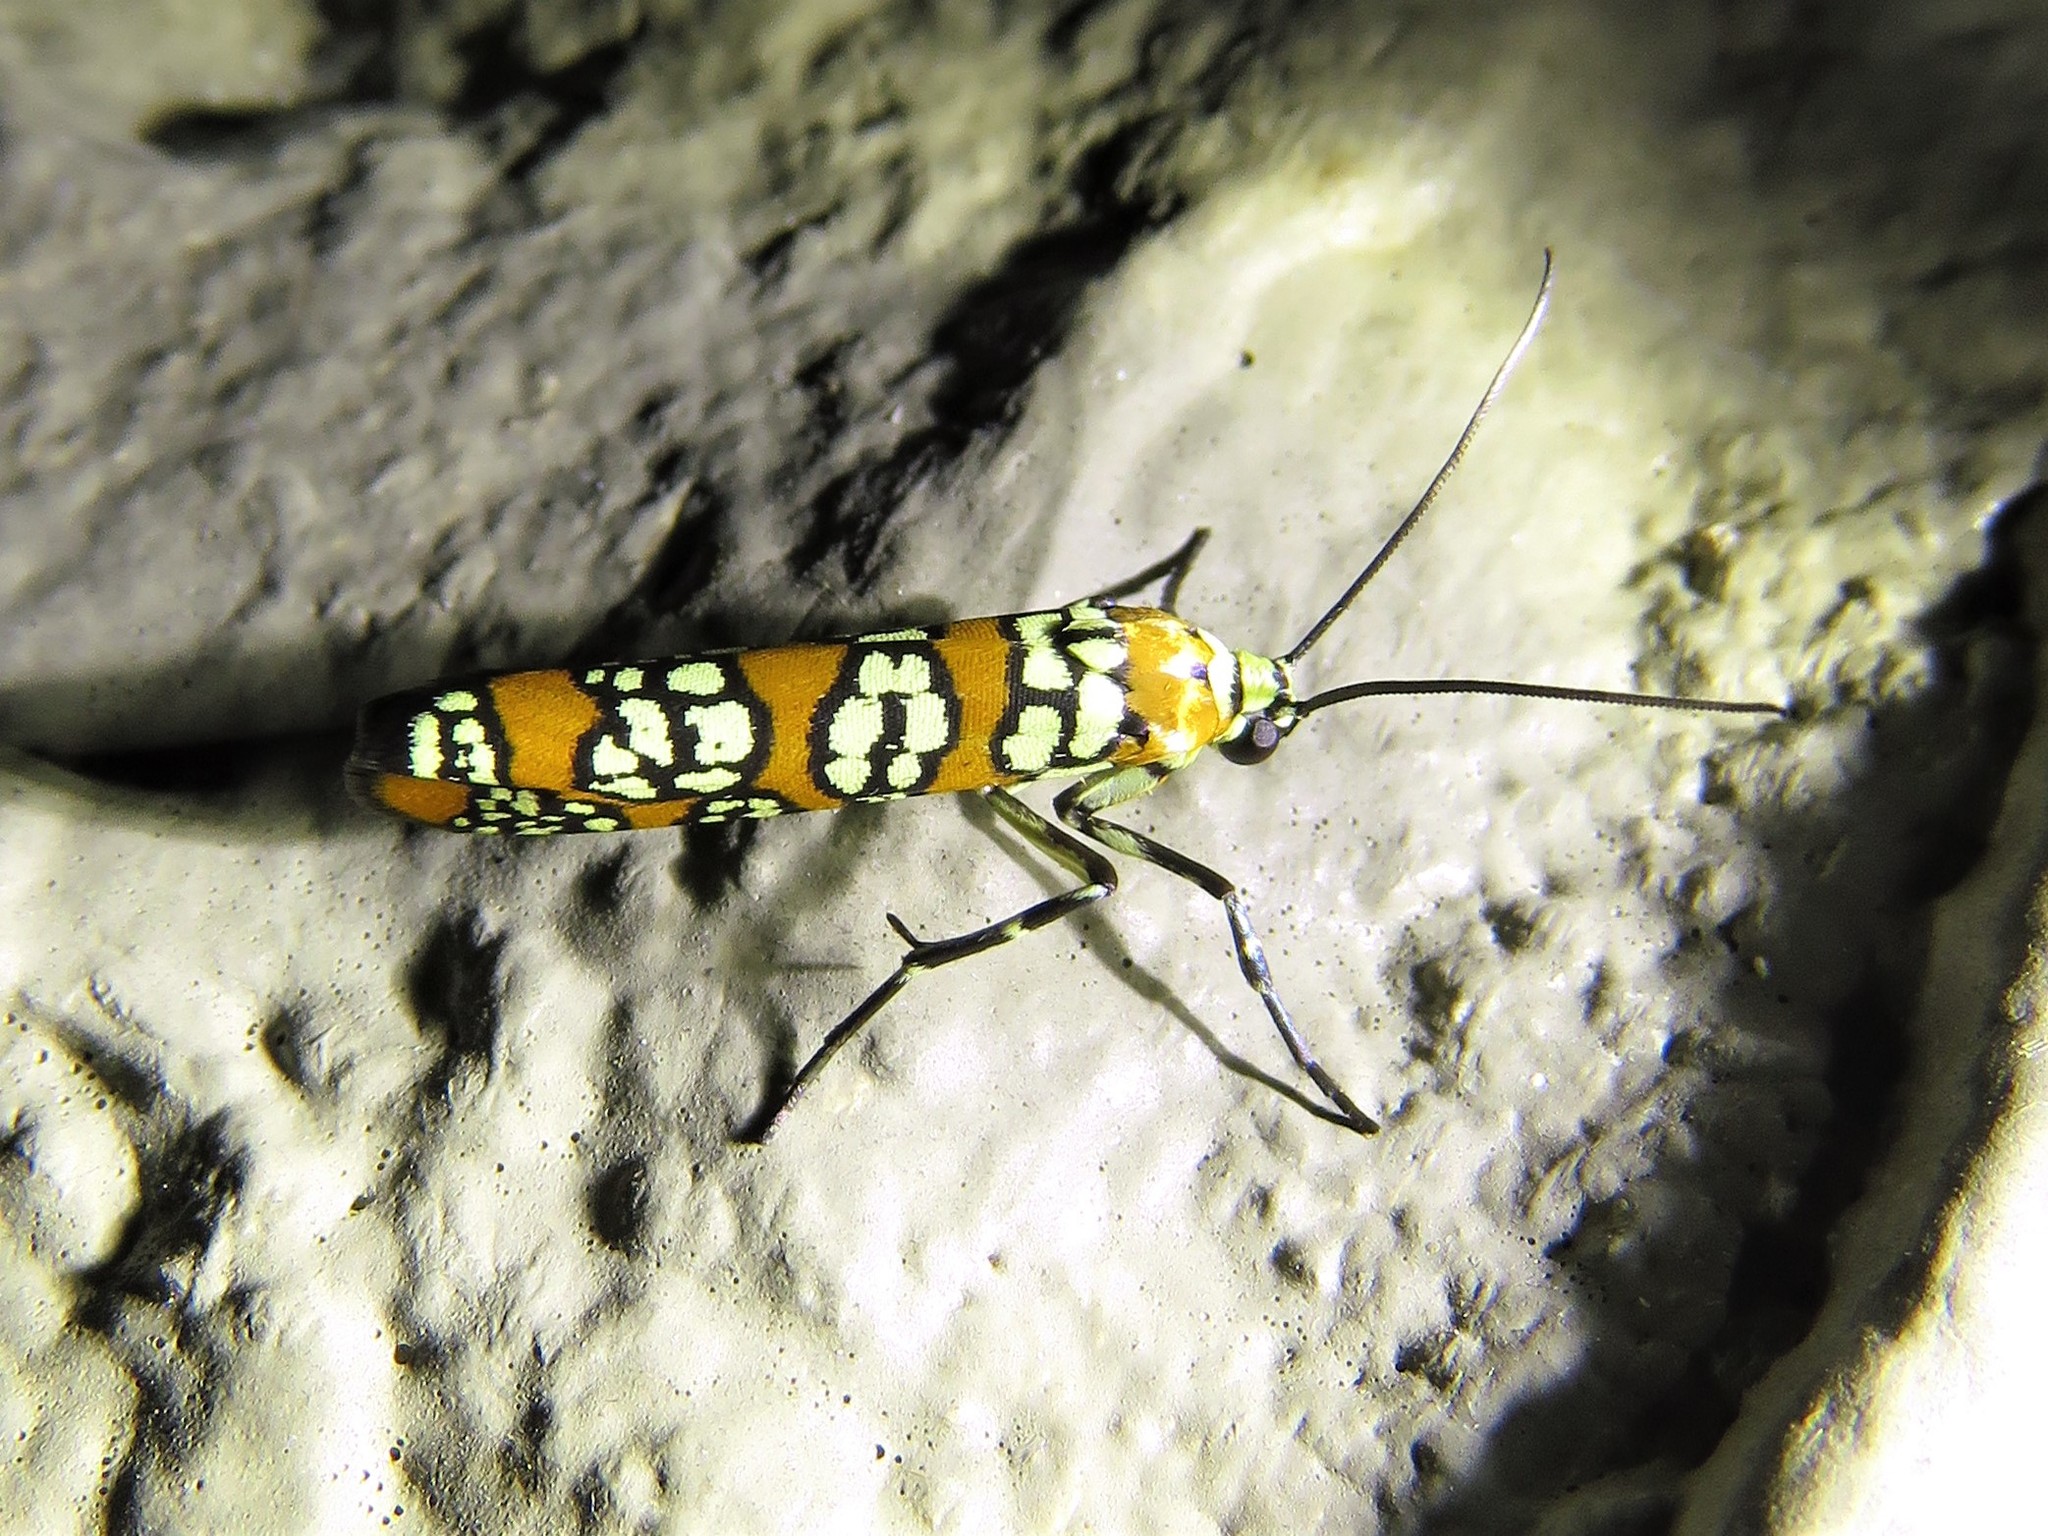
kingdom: Animalia
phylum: Arthropoda
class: Insecta
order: Lepidoptera
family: Attevidae
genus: Atteva
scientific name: Atteva punctella
